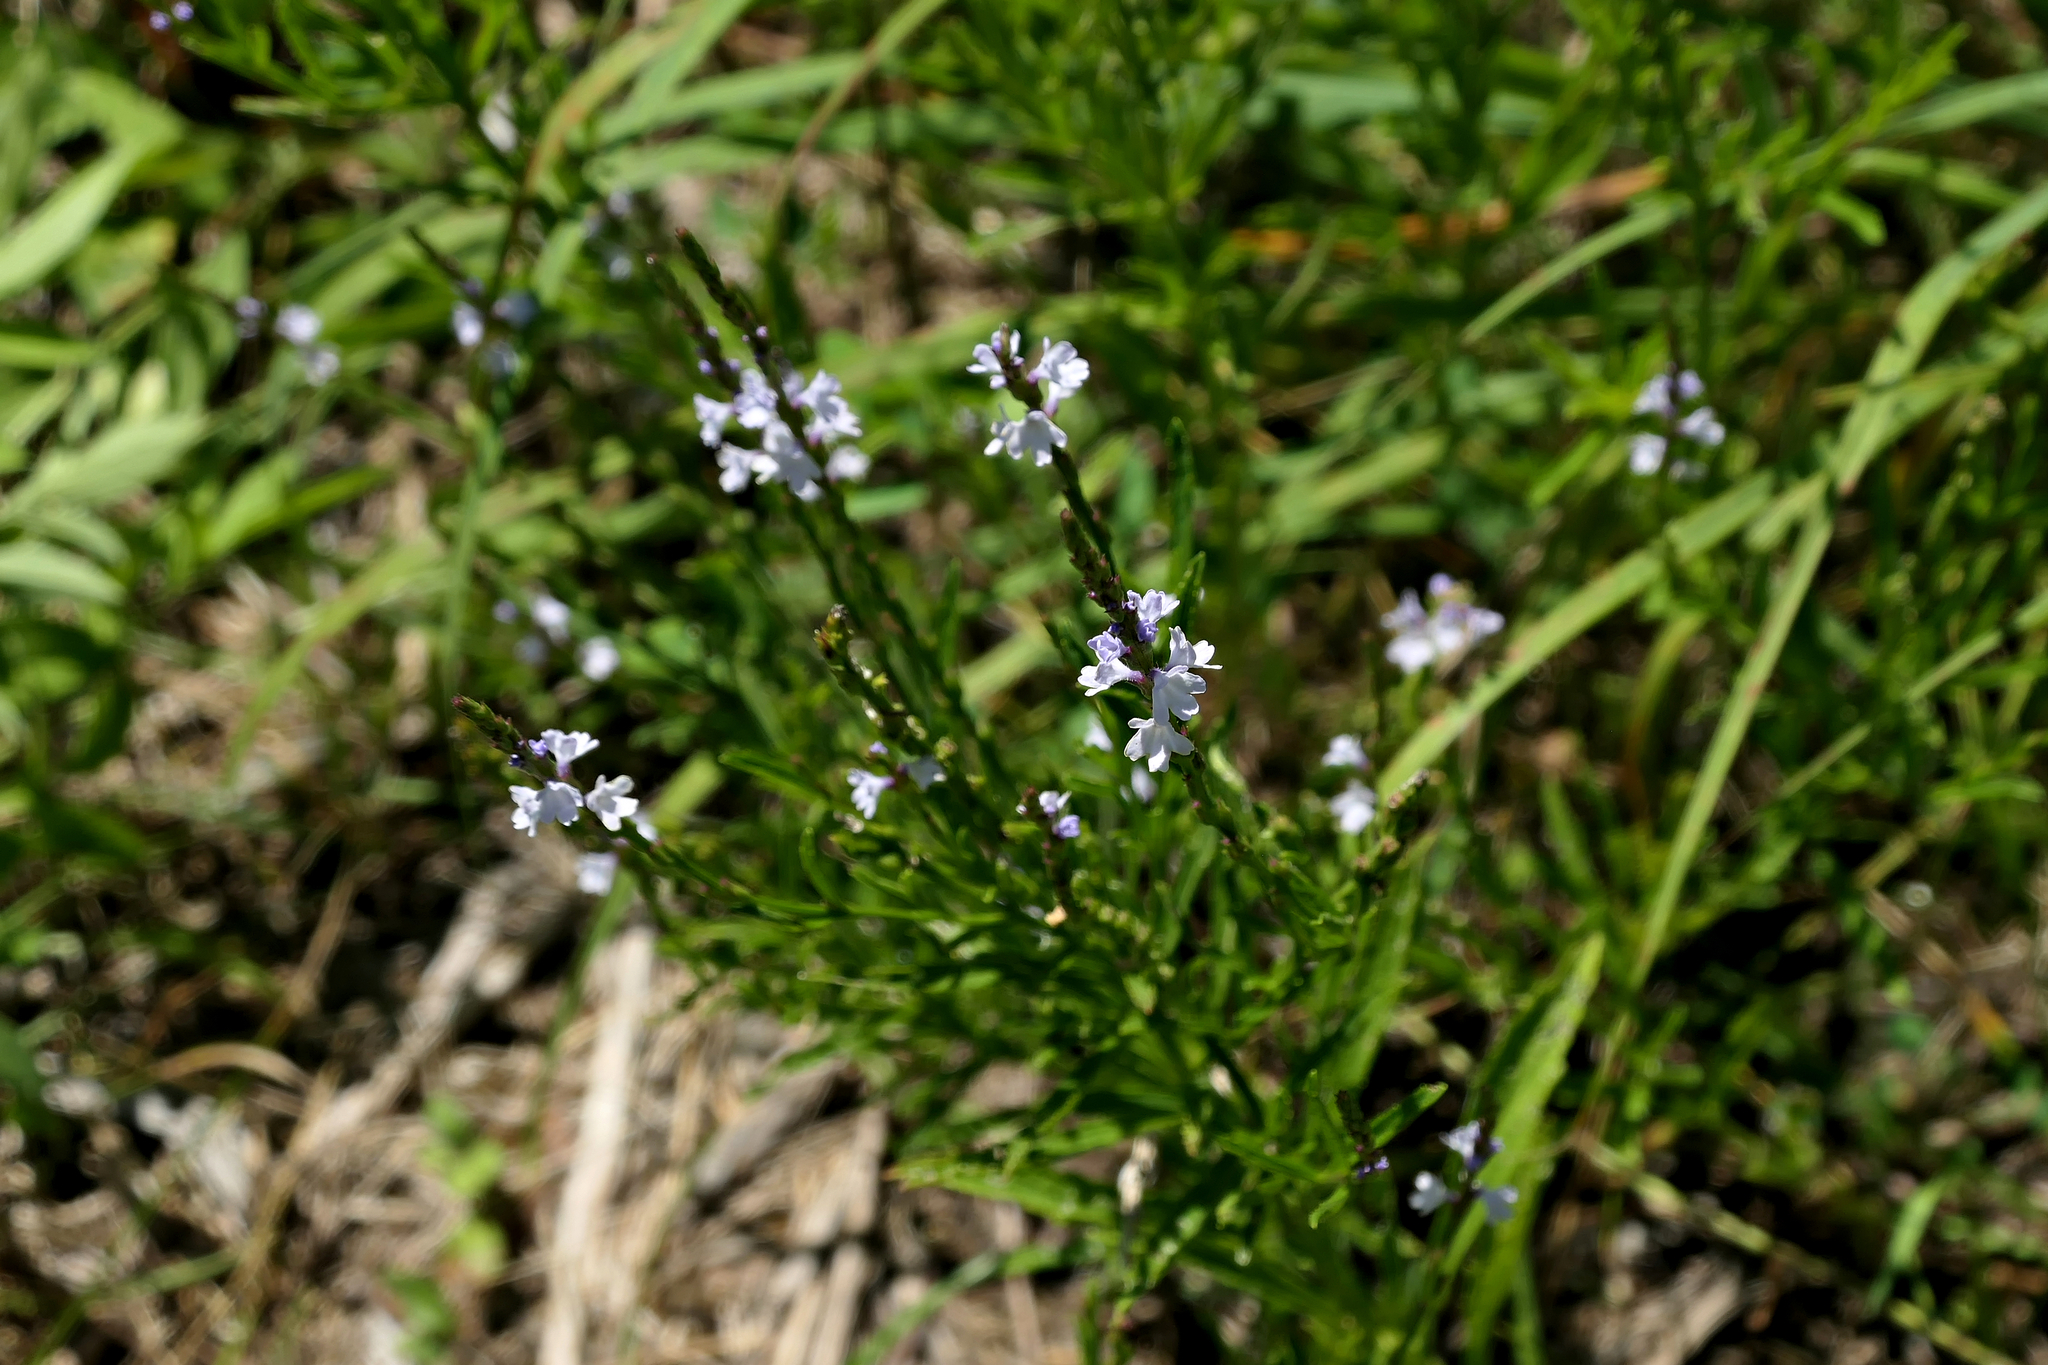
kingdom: Plantae
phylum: Tracheophyta
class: Magnoliopsida
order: Lamiales
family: Verbenaceae
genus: Verbena
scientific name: Verbena simplex
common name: Narrow-leaf vervain
